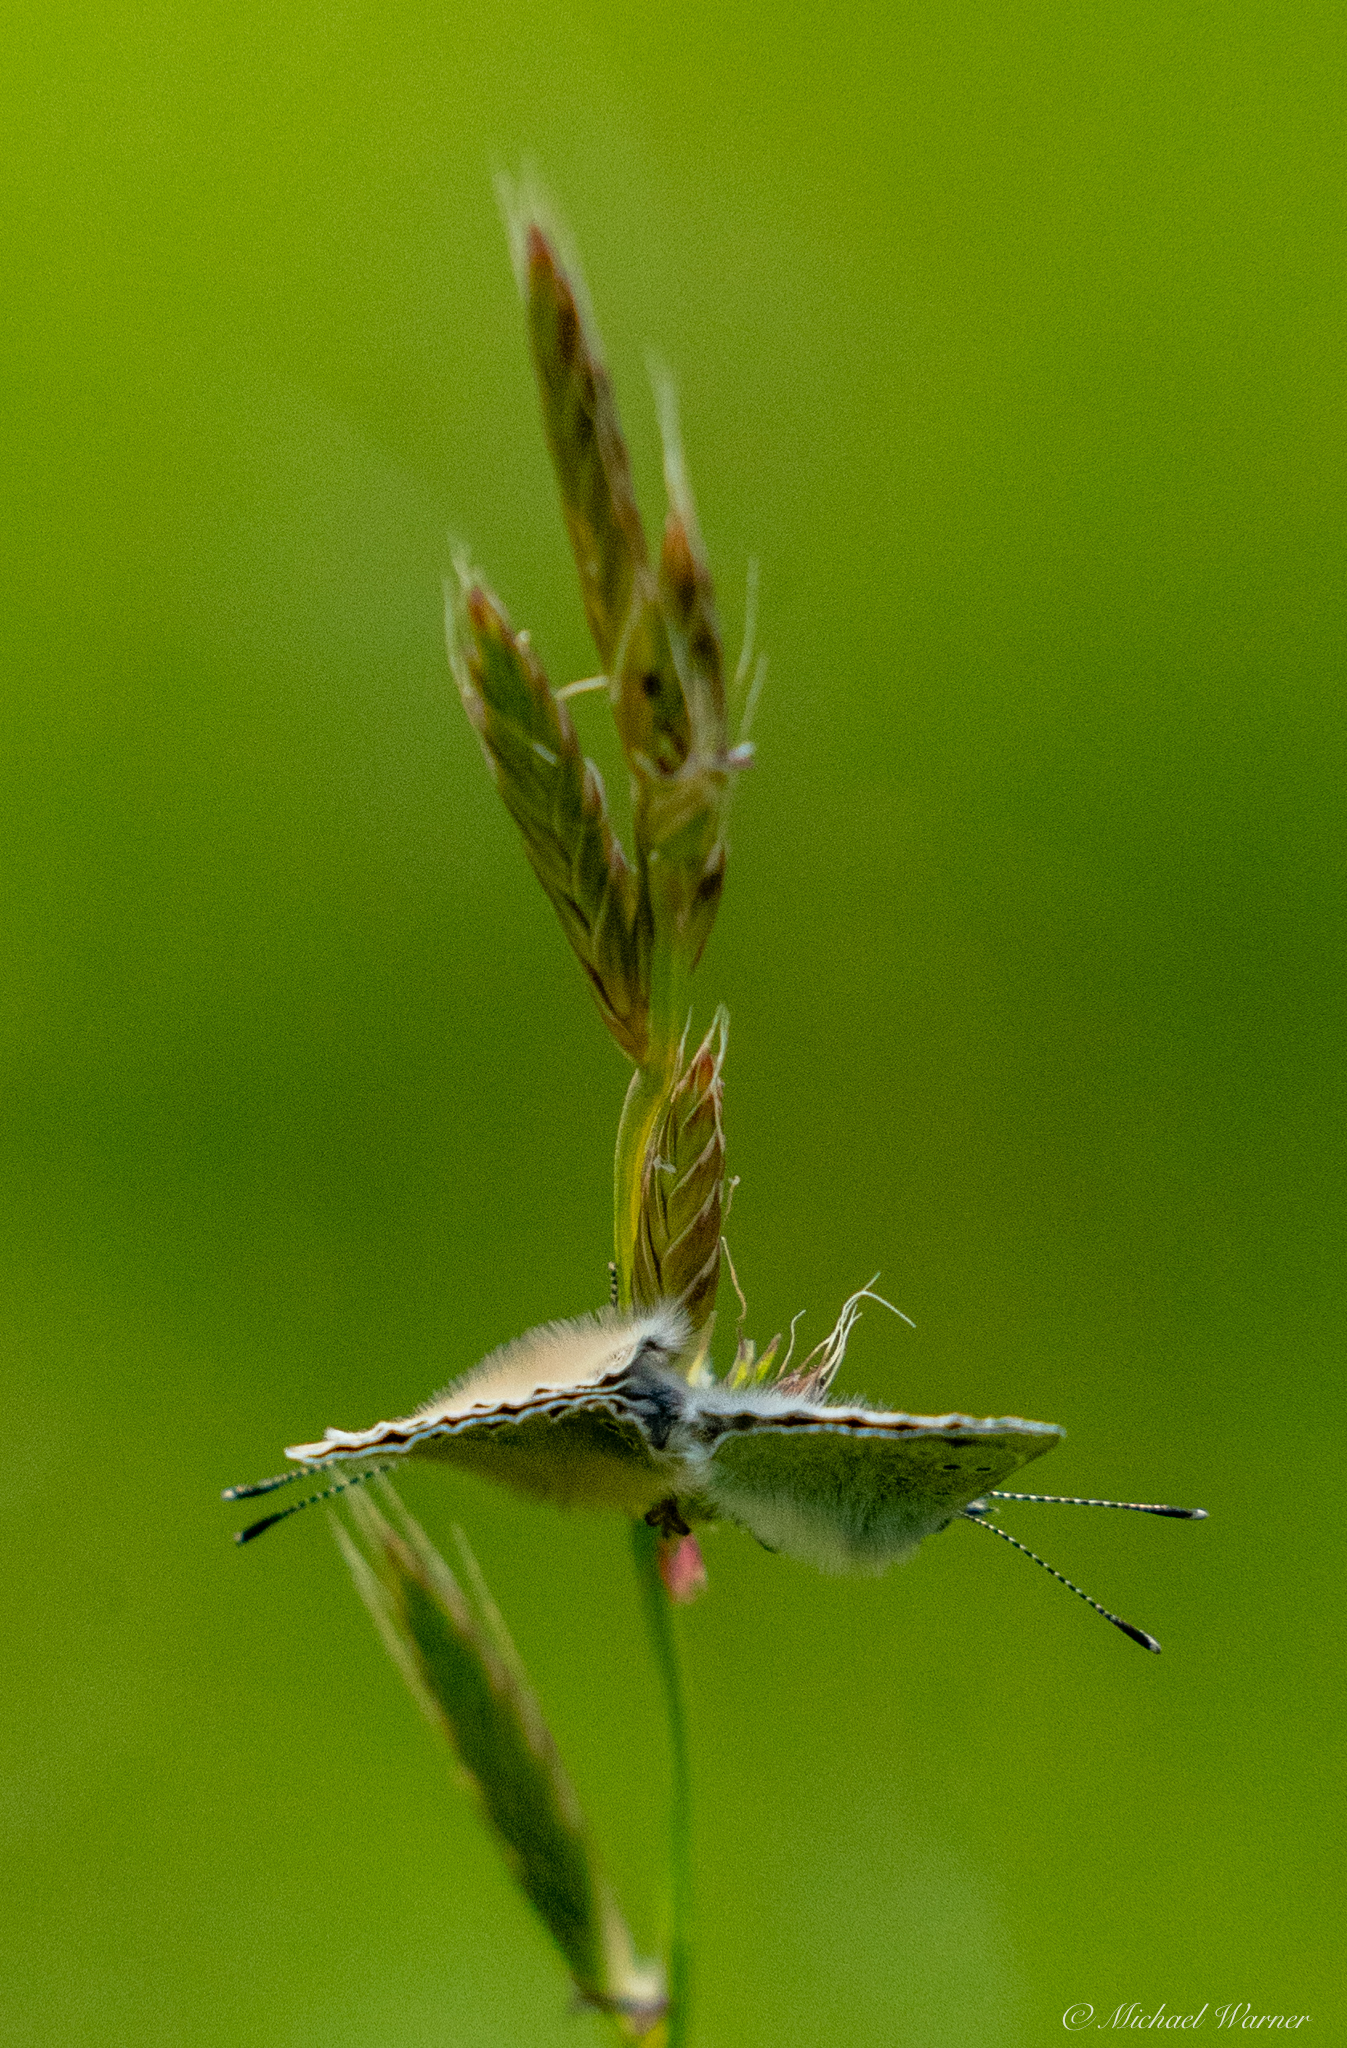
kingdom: Animalia
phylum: Arthropoda
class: Insecta
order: Lepidoptera
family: Lycaenidae
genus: Glaucopsyche
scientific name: Glaucopsyche lygdamus
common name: Silvery blue
